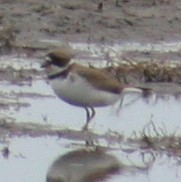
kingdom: Animalia
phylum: Chordata
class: Aves
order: Charadriiformes
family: Charadriidae
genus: Charadrius
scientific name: Charadrius semipalmatus
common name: Semipalmated plover
